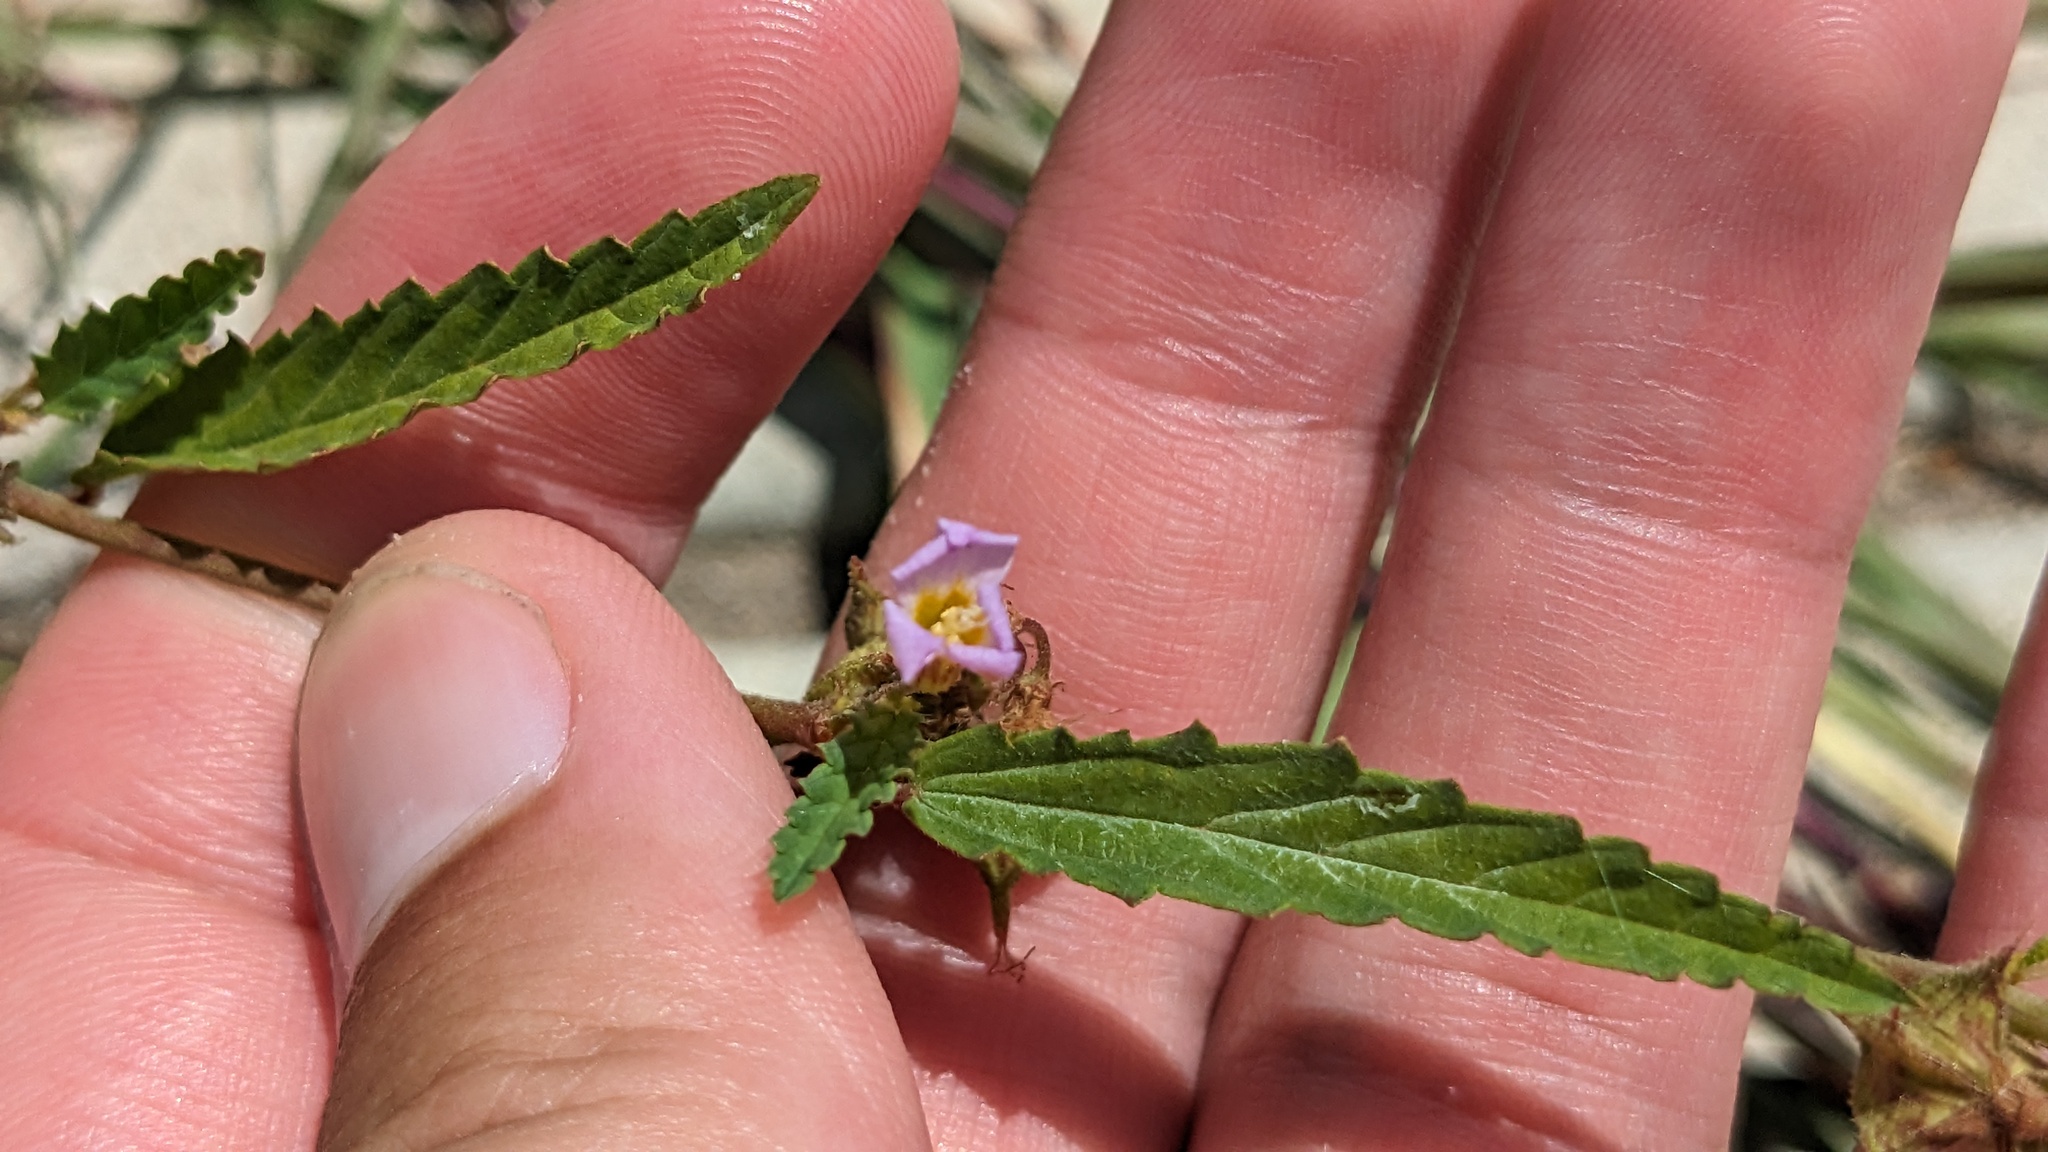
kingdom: Plantae
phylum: Tracheophyta
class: Magnoliopsida
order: Malvales
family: Malvaceae
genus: Melochia
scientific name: Melochia pyramidata
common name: Pyramidflower
